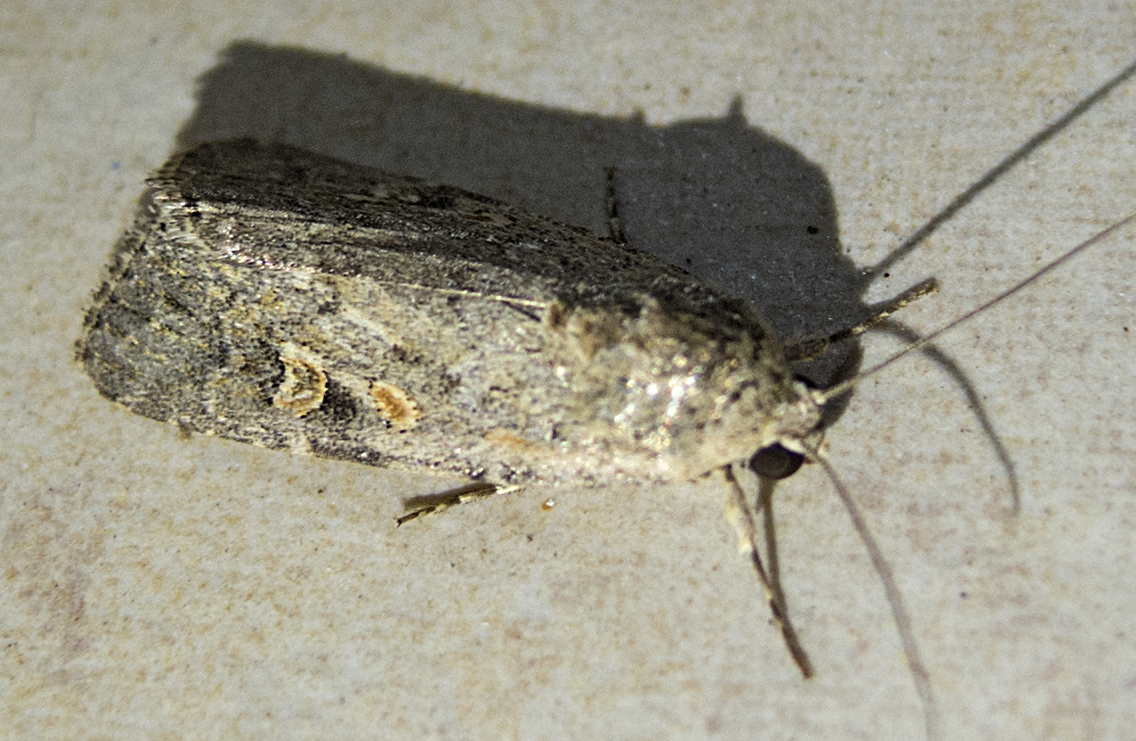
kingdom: Animalia
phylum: Arthropoda
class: Insecta
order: Lepidoptera
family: Noctuidae
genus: Spodoptera
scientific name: Spodoptera exigua
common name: Beet armyworm
